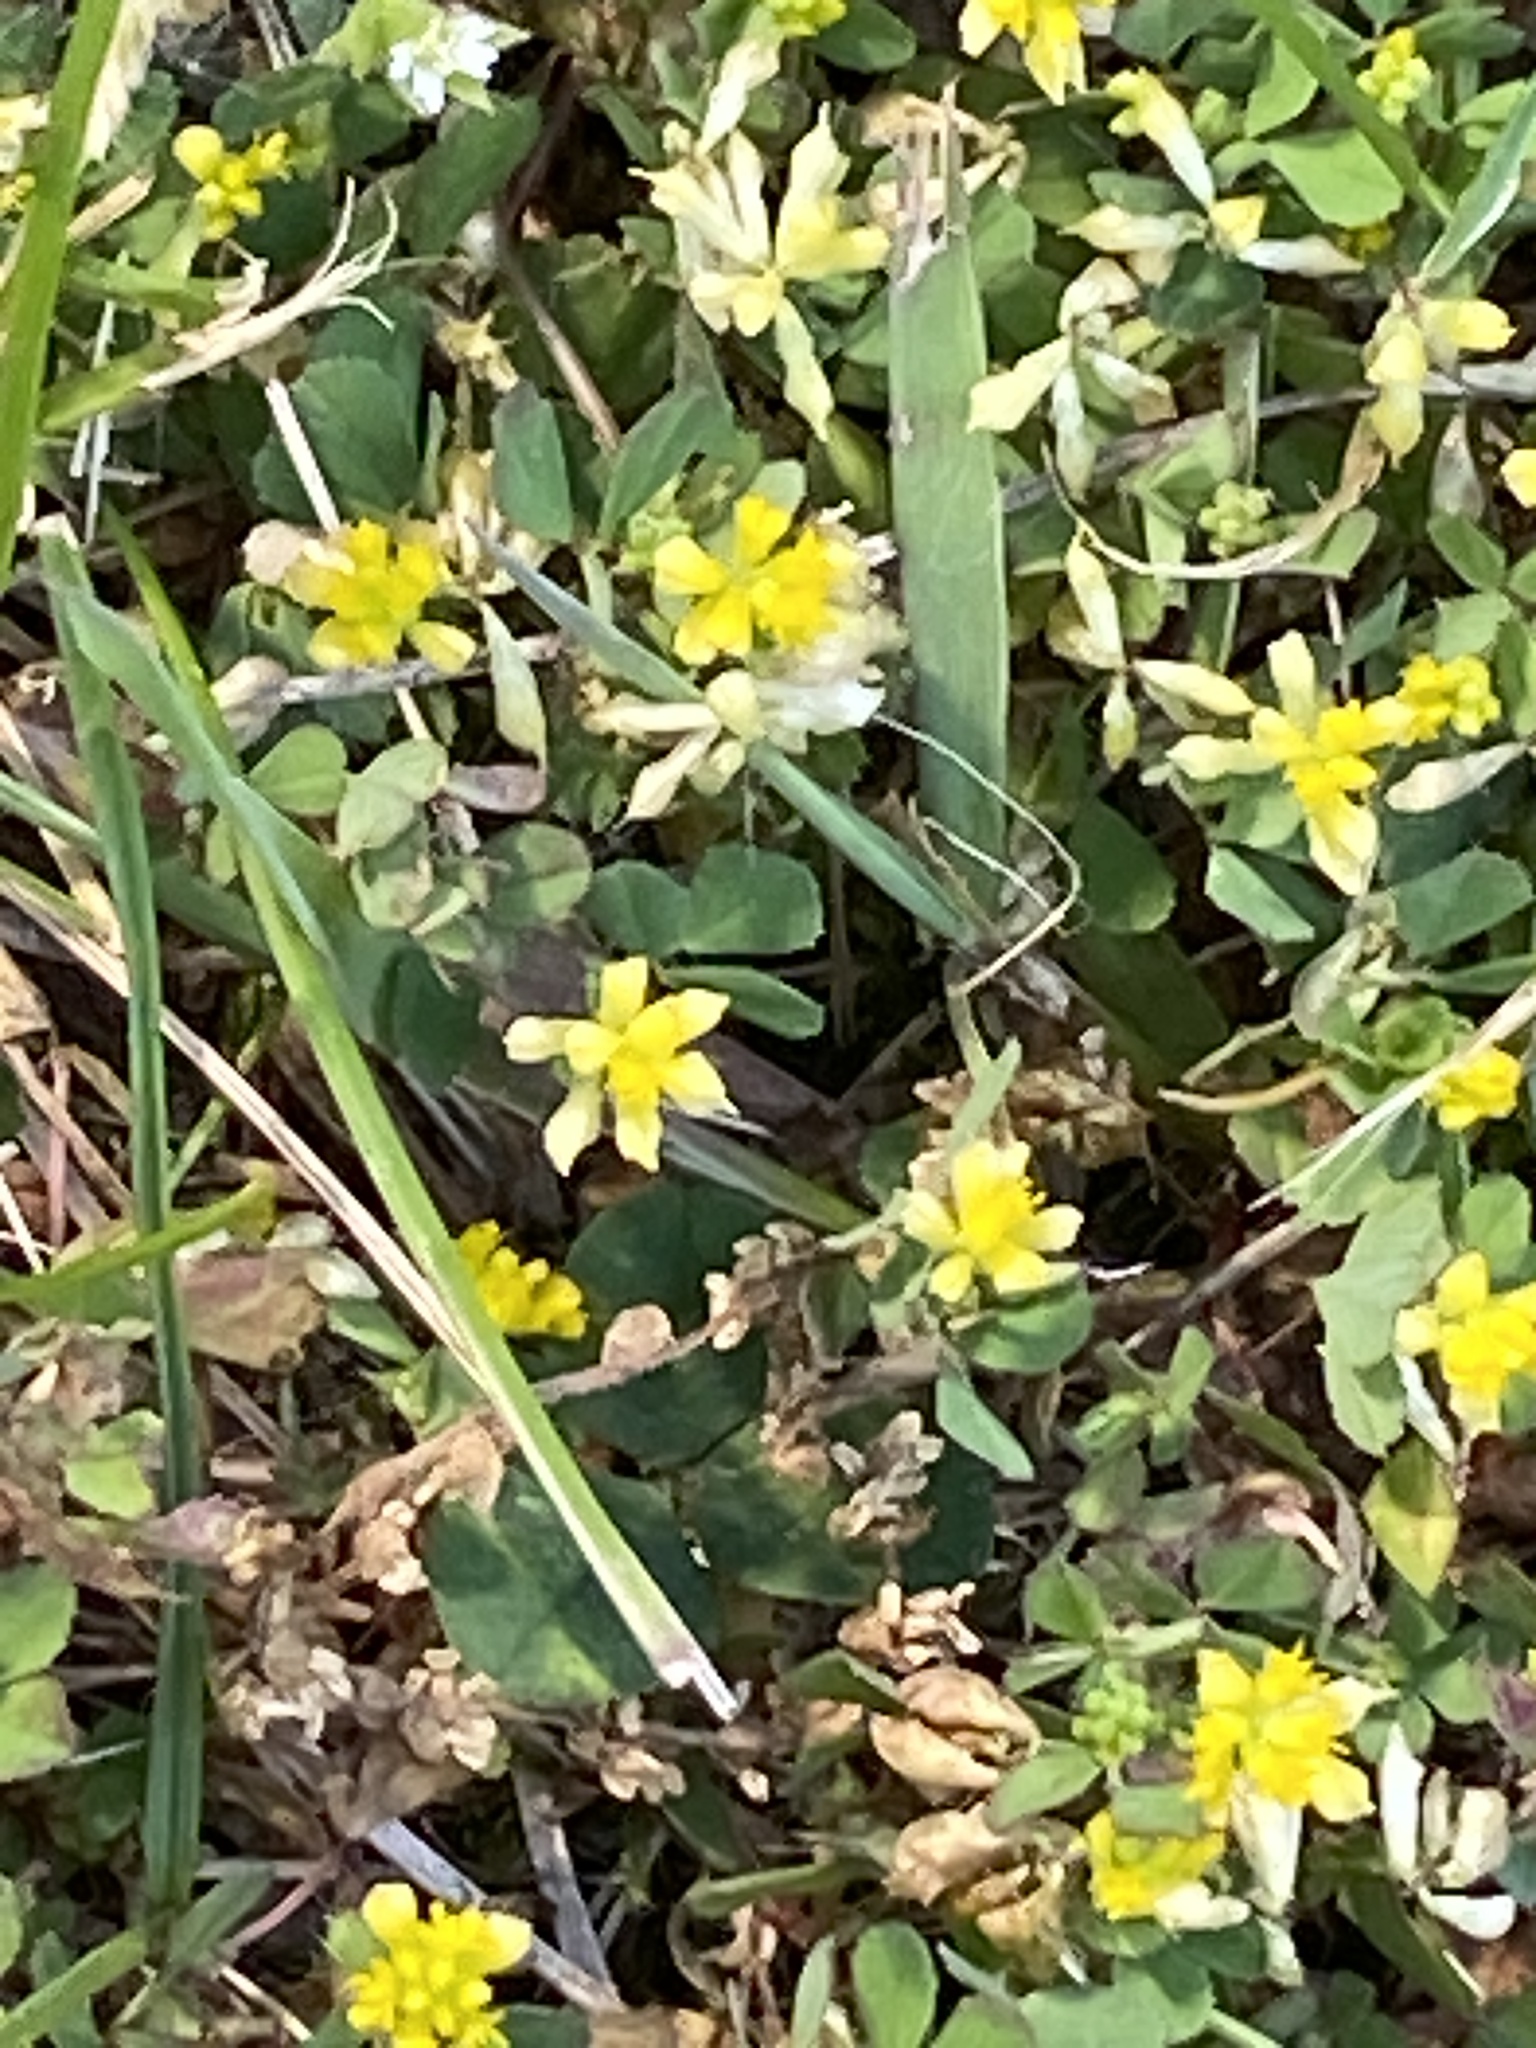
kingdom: Plantae
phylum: Tracheophyta
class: Magnoliopsida
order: Fabales
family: Fabaceae
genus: Trifolium
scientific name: Trifolium dubium
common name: Suckling clover
